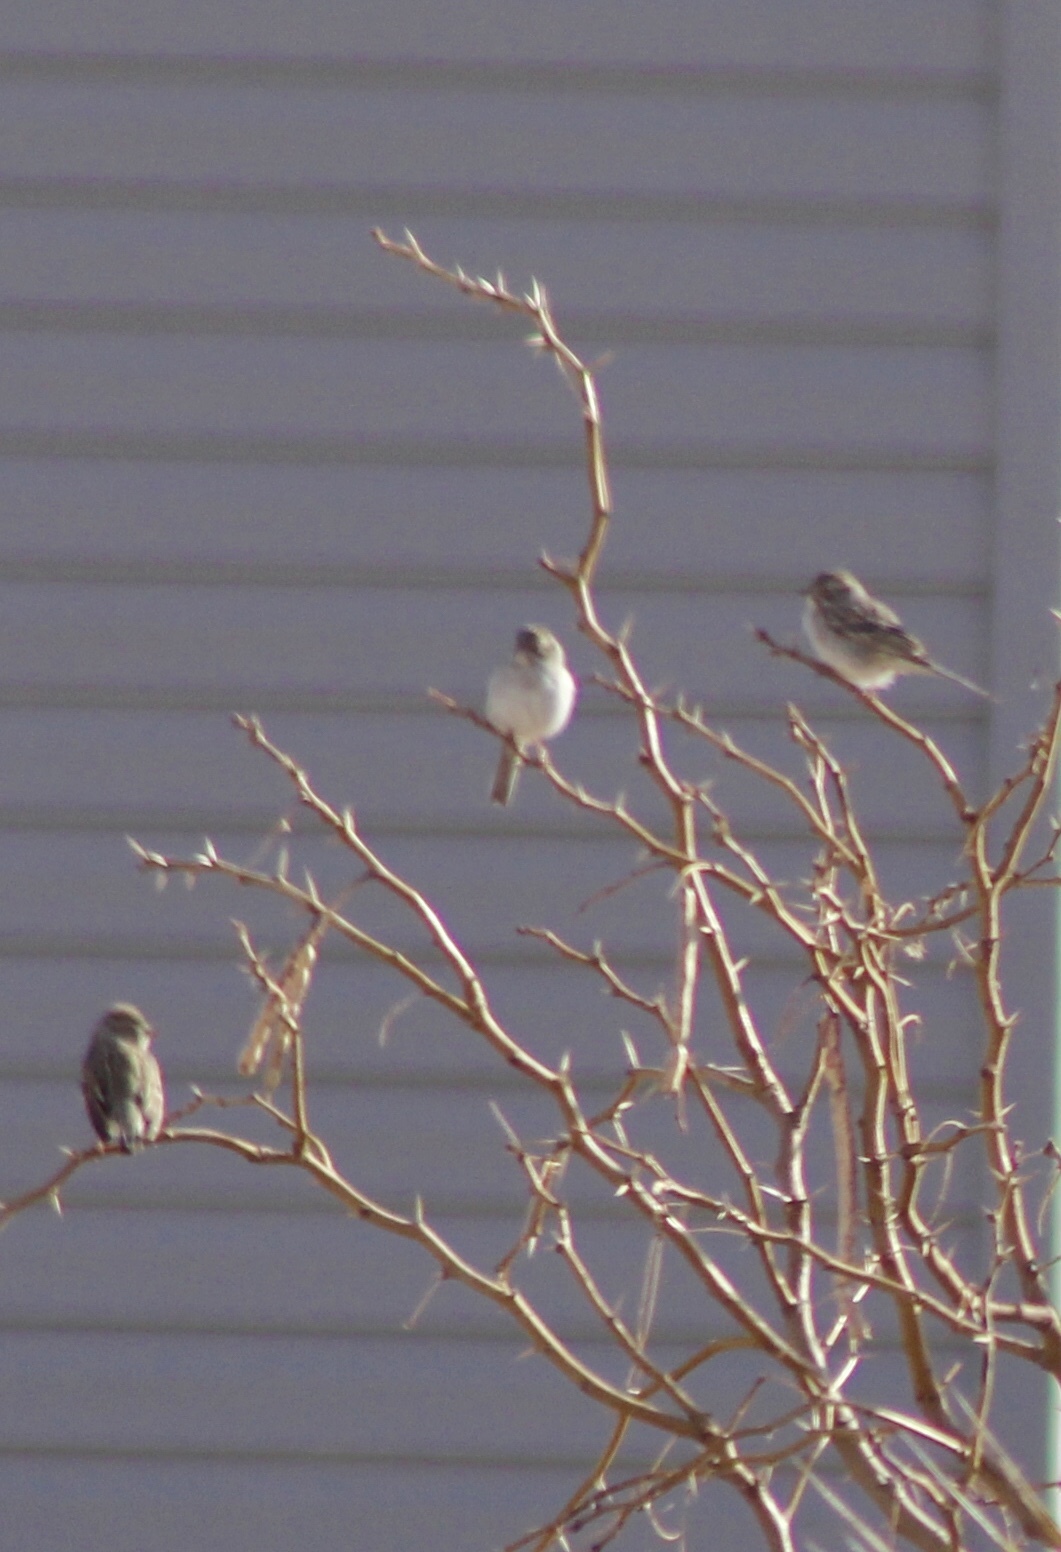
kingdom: Animalia
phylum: Chordata
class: Aves
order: Passeriformes
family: Passerellidae
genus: Spizella
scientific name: Spizella passerina
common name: Chipping sparrow
